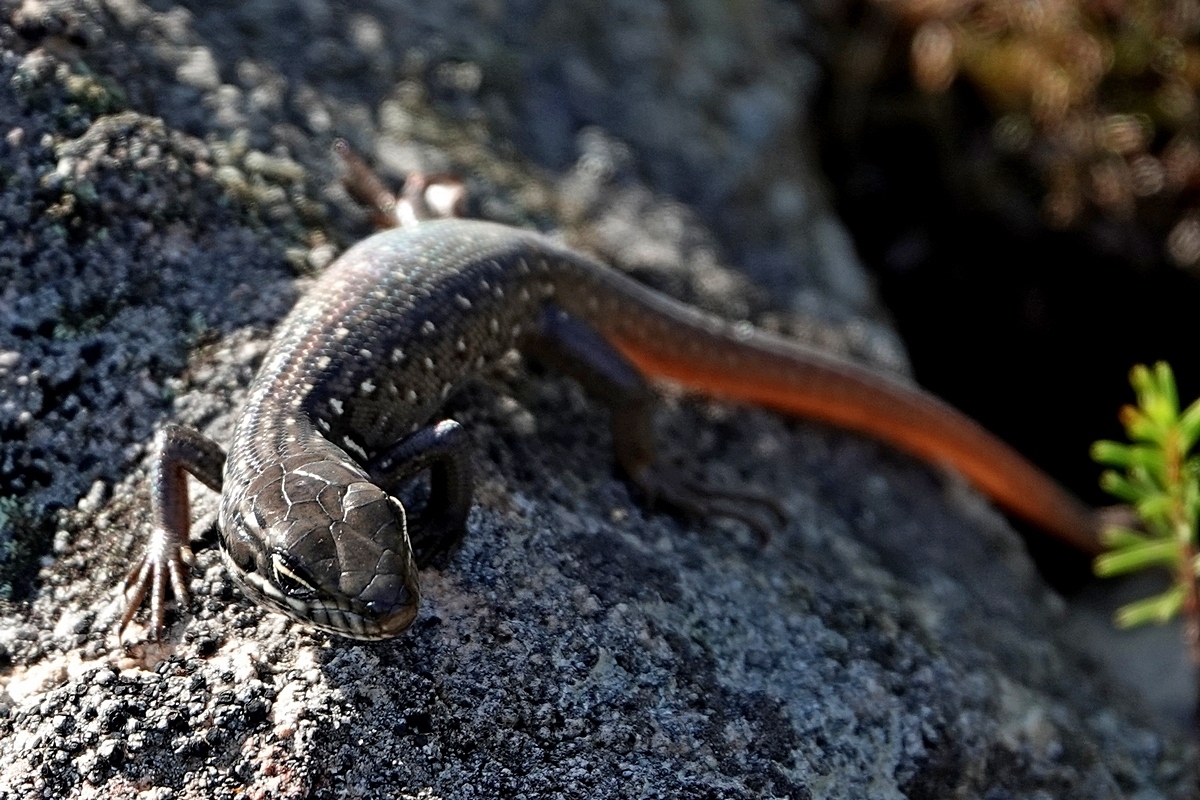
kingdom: Animalia
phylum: Chordata
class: Squamata
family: Scincidae
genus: Liopholis
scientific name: Liopholis whitii
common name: White's rock-skink
